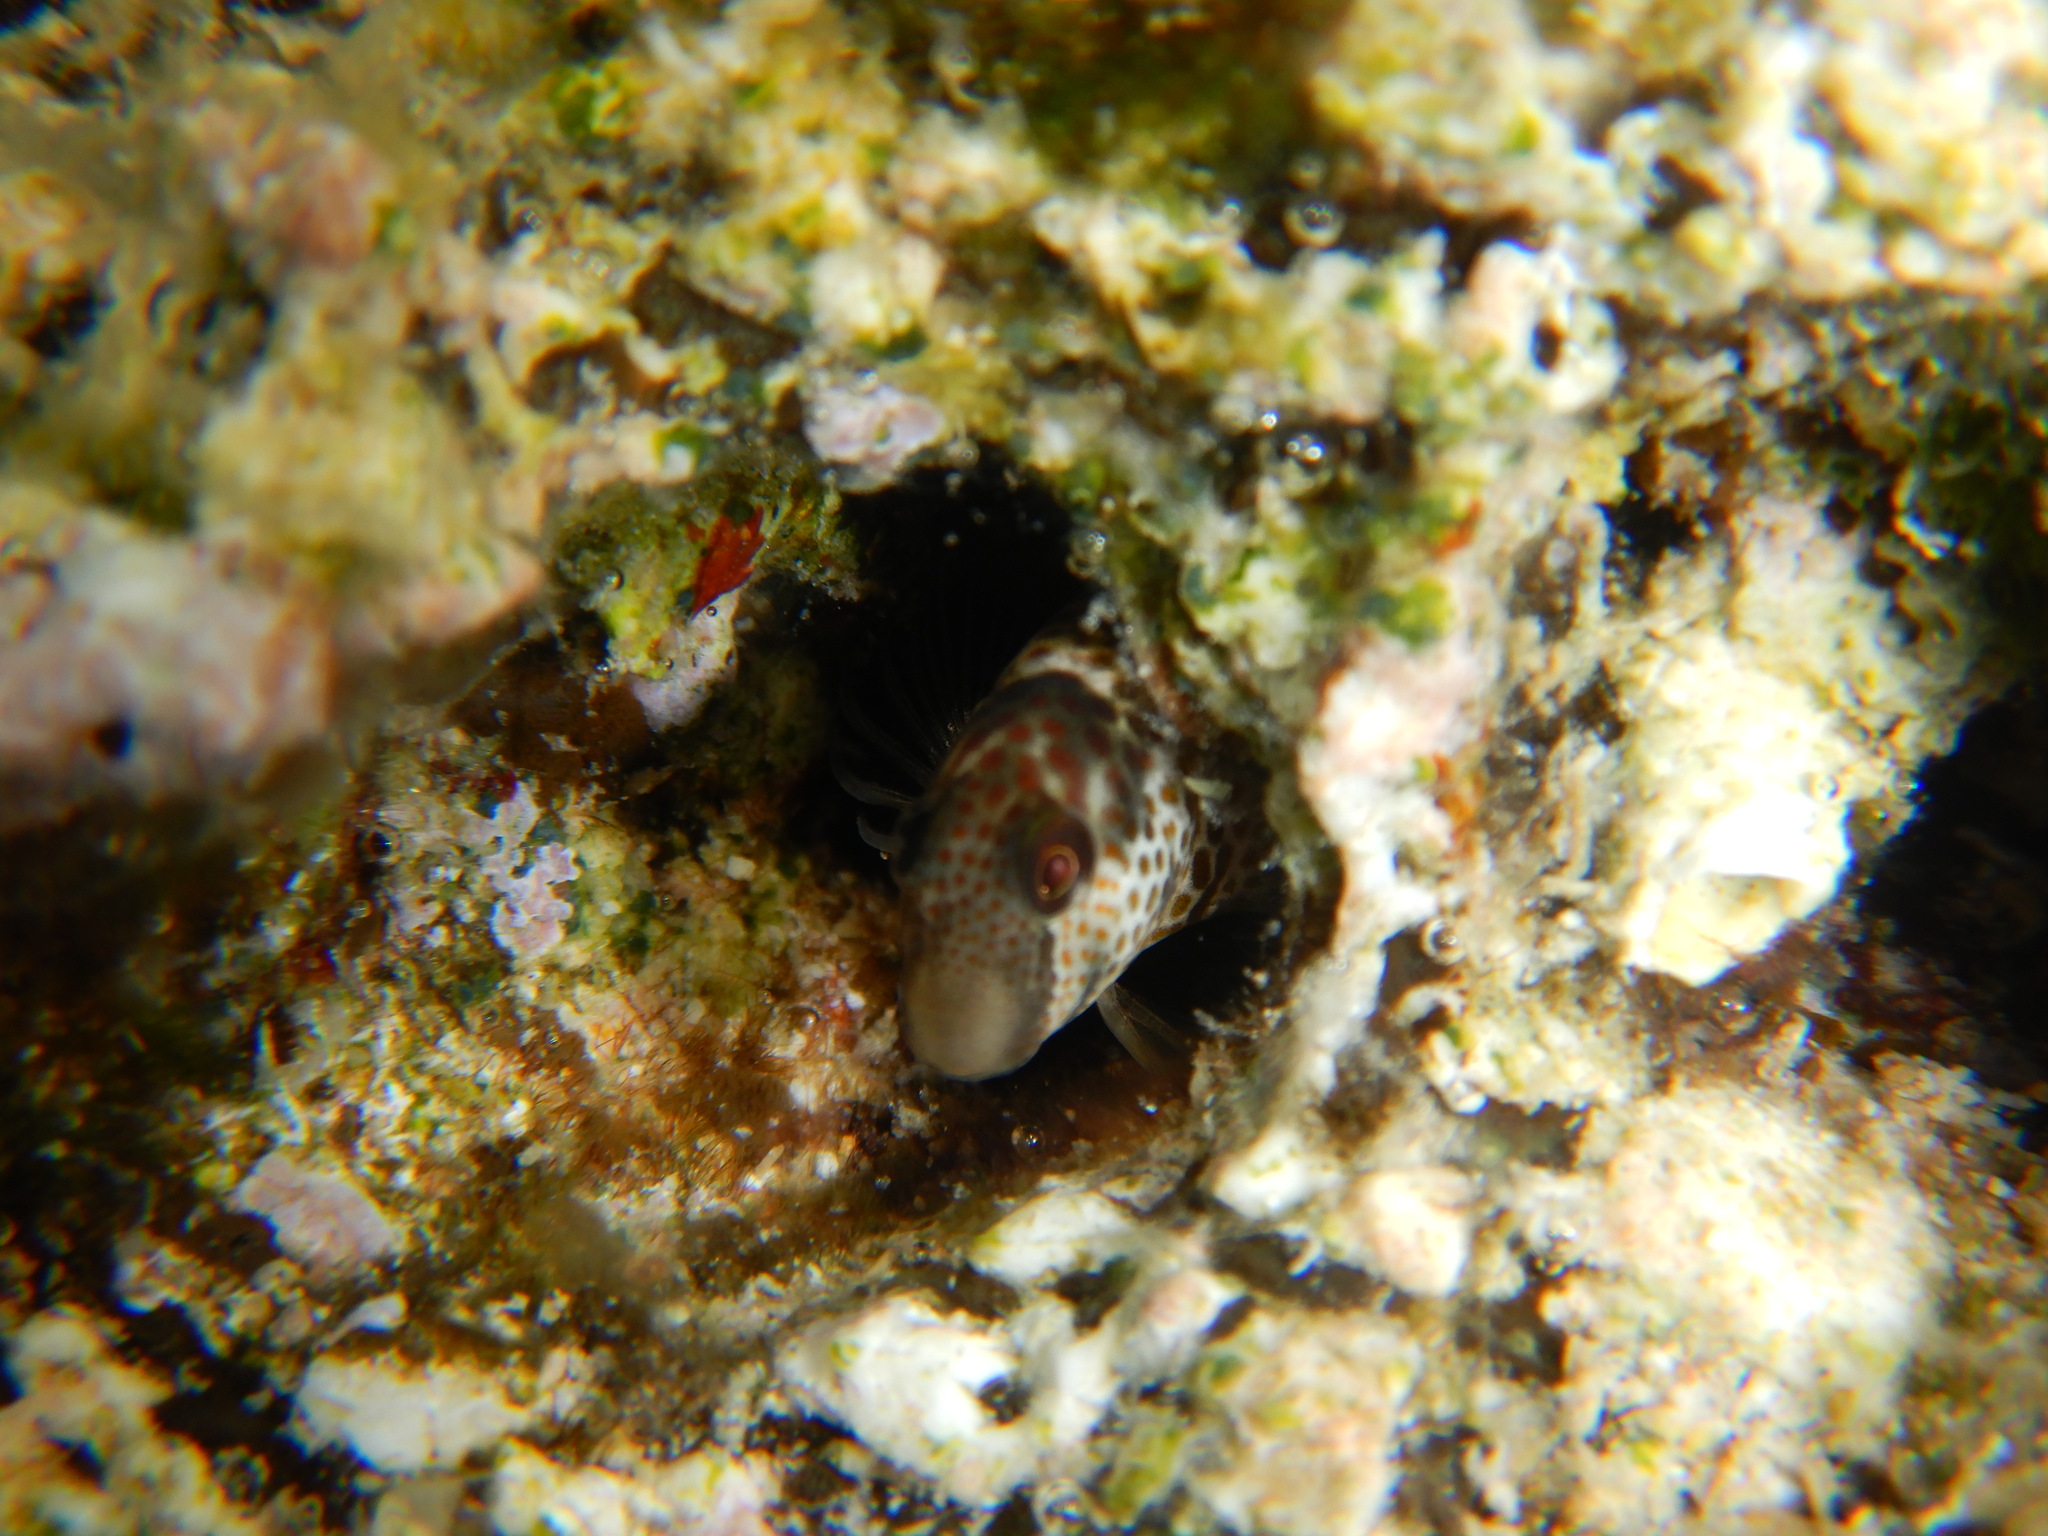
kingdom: Animalia
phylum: Chordata
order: Perciformes
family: Blenniidae
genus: Microlipophrys
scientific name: Microlipophrys canevae
